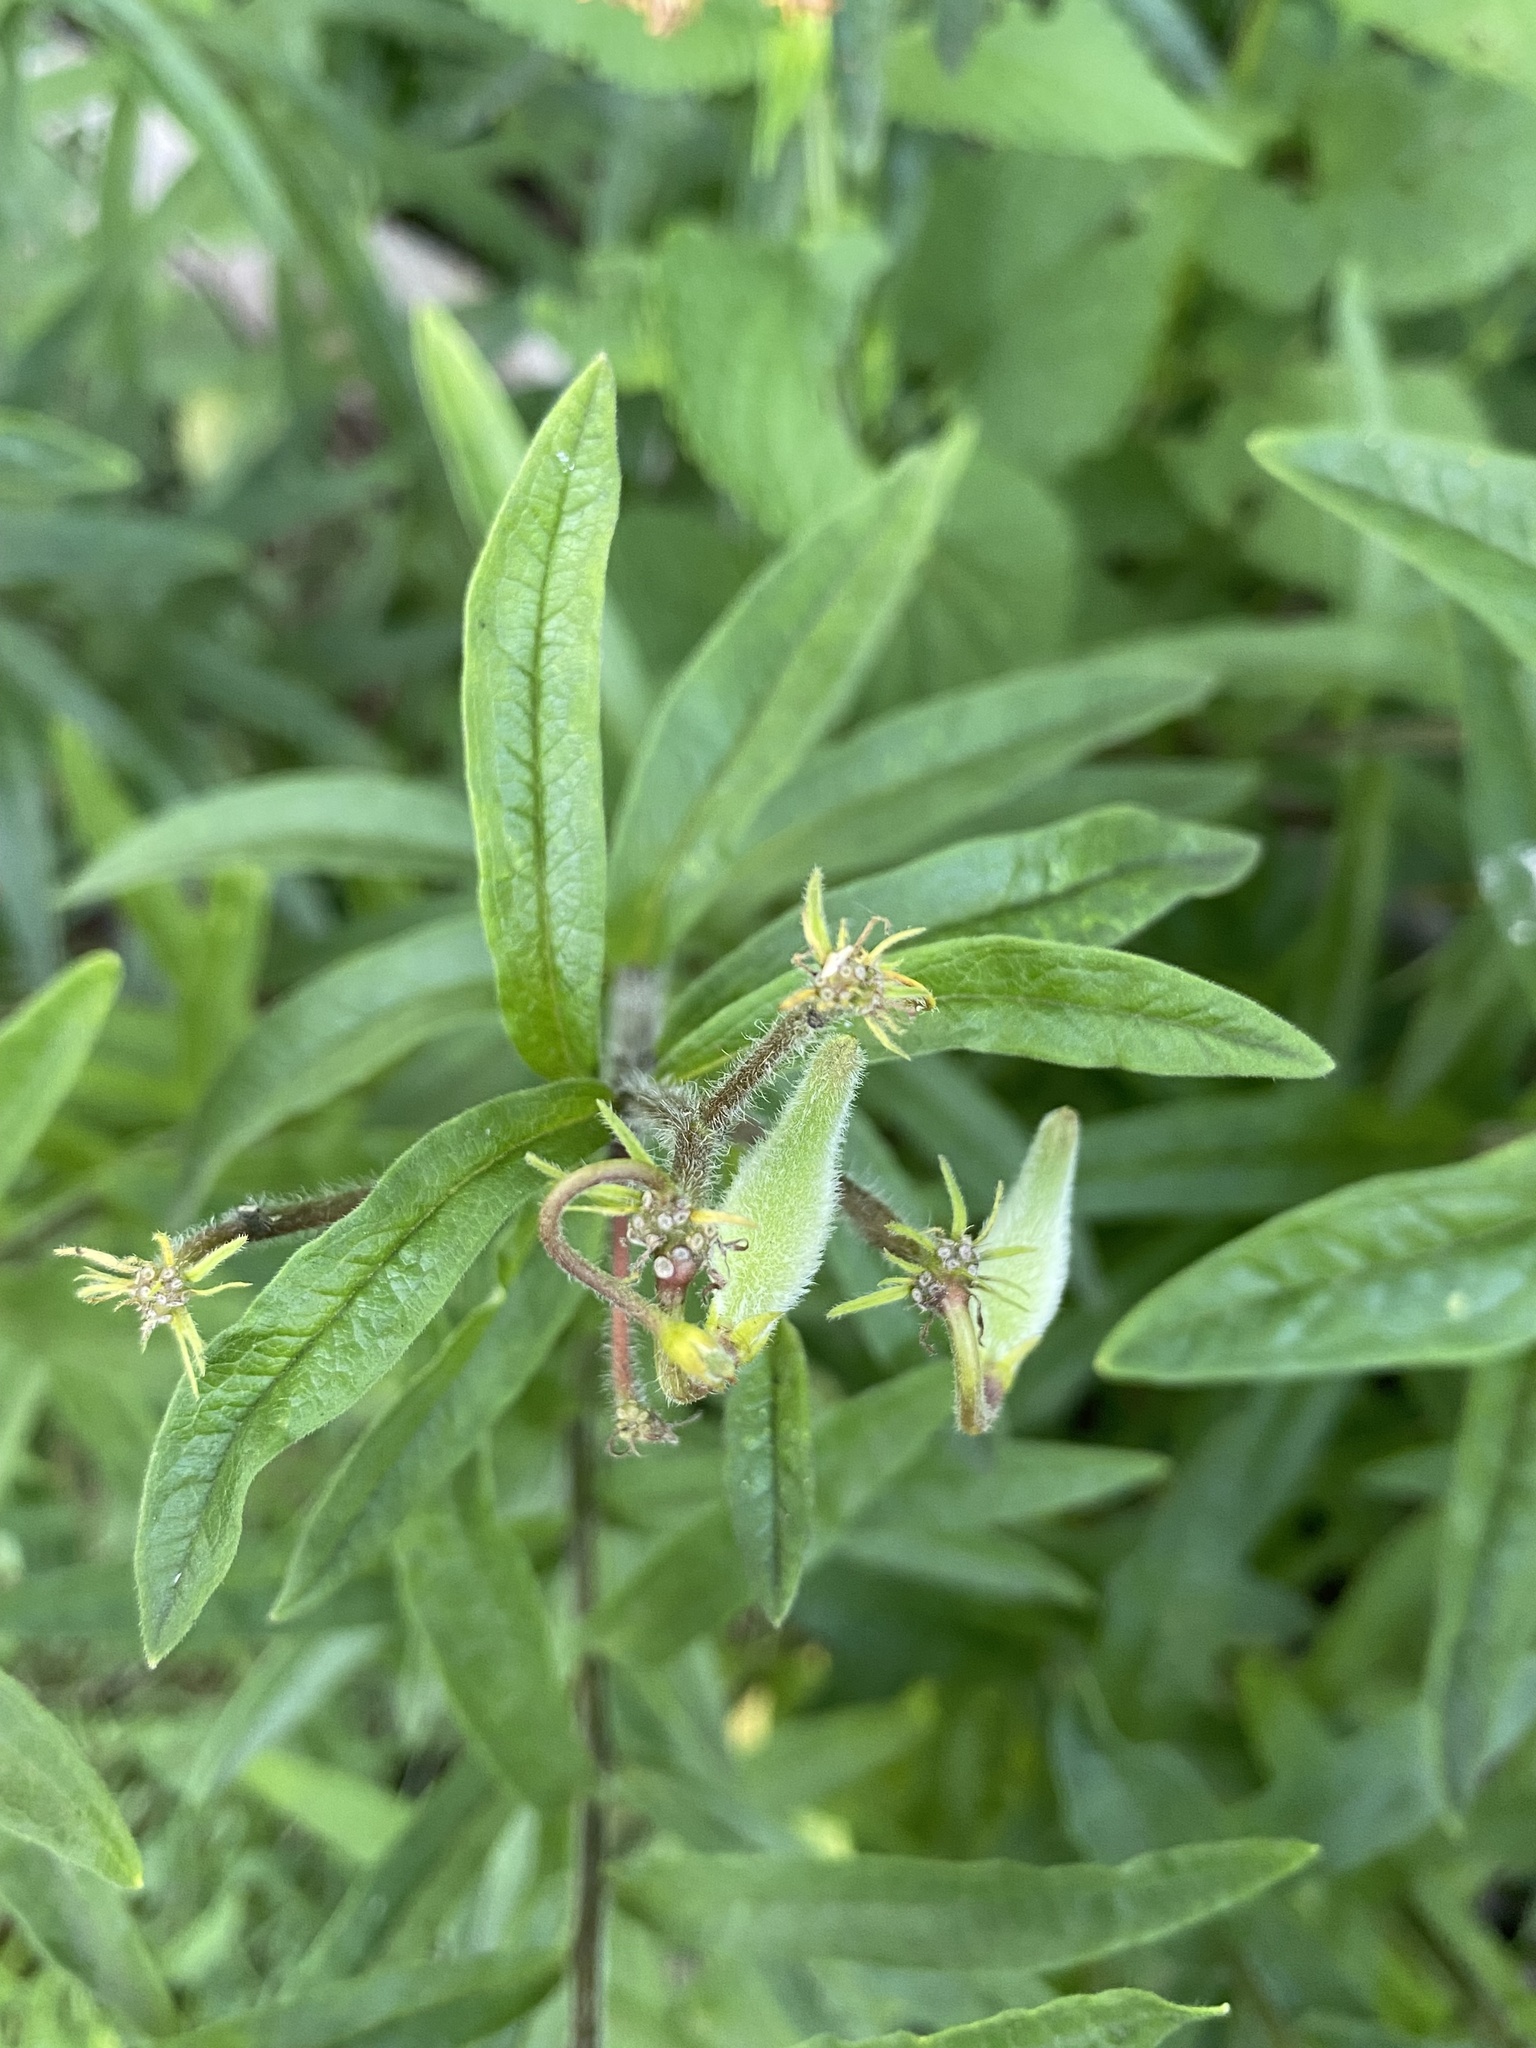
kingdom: Plantae
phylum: Tracheophyta
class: Magnoliopsida
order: Gentianales
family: Apocynaceae
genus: Asclepias
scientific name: Asclepias tuberosa
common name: Butterfly milkweed
